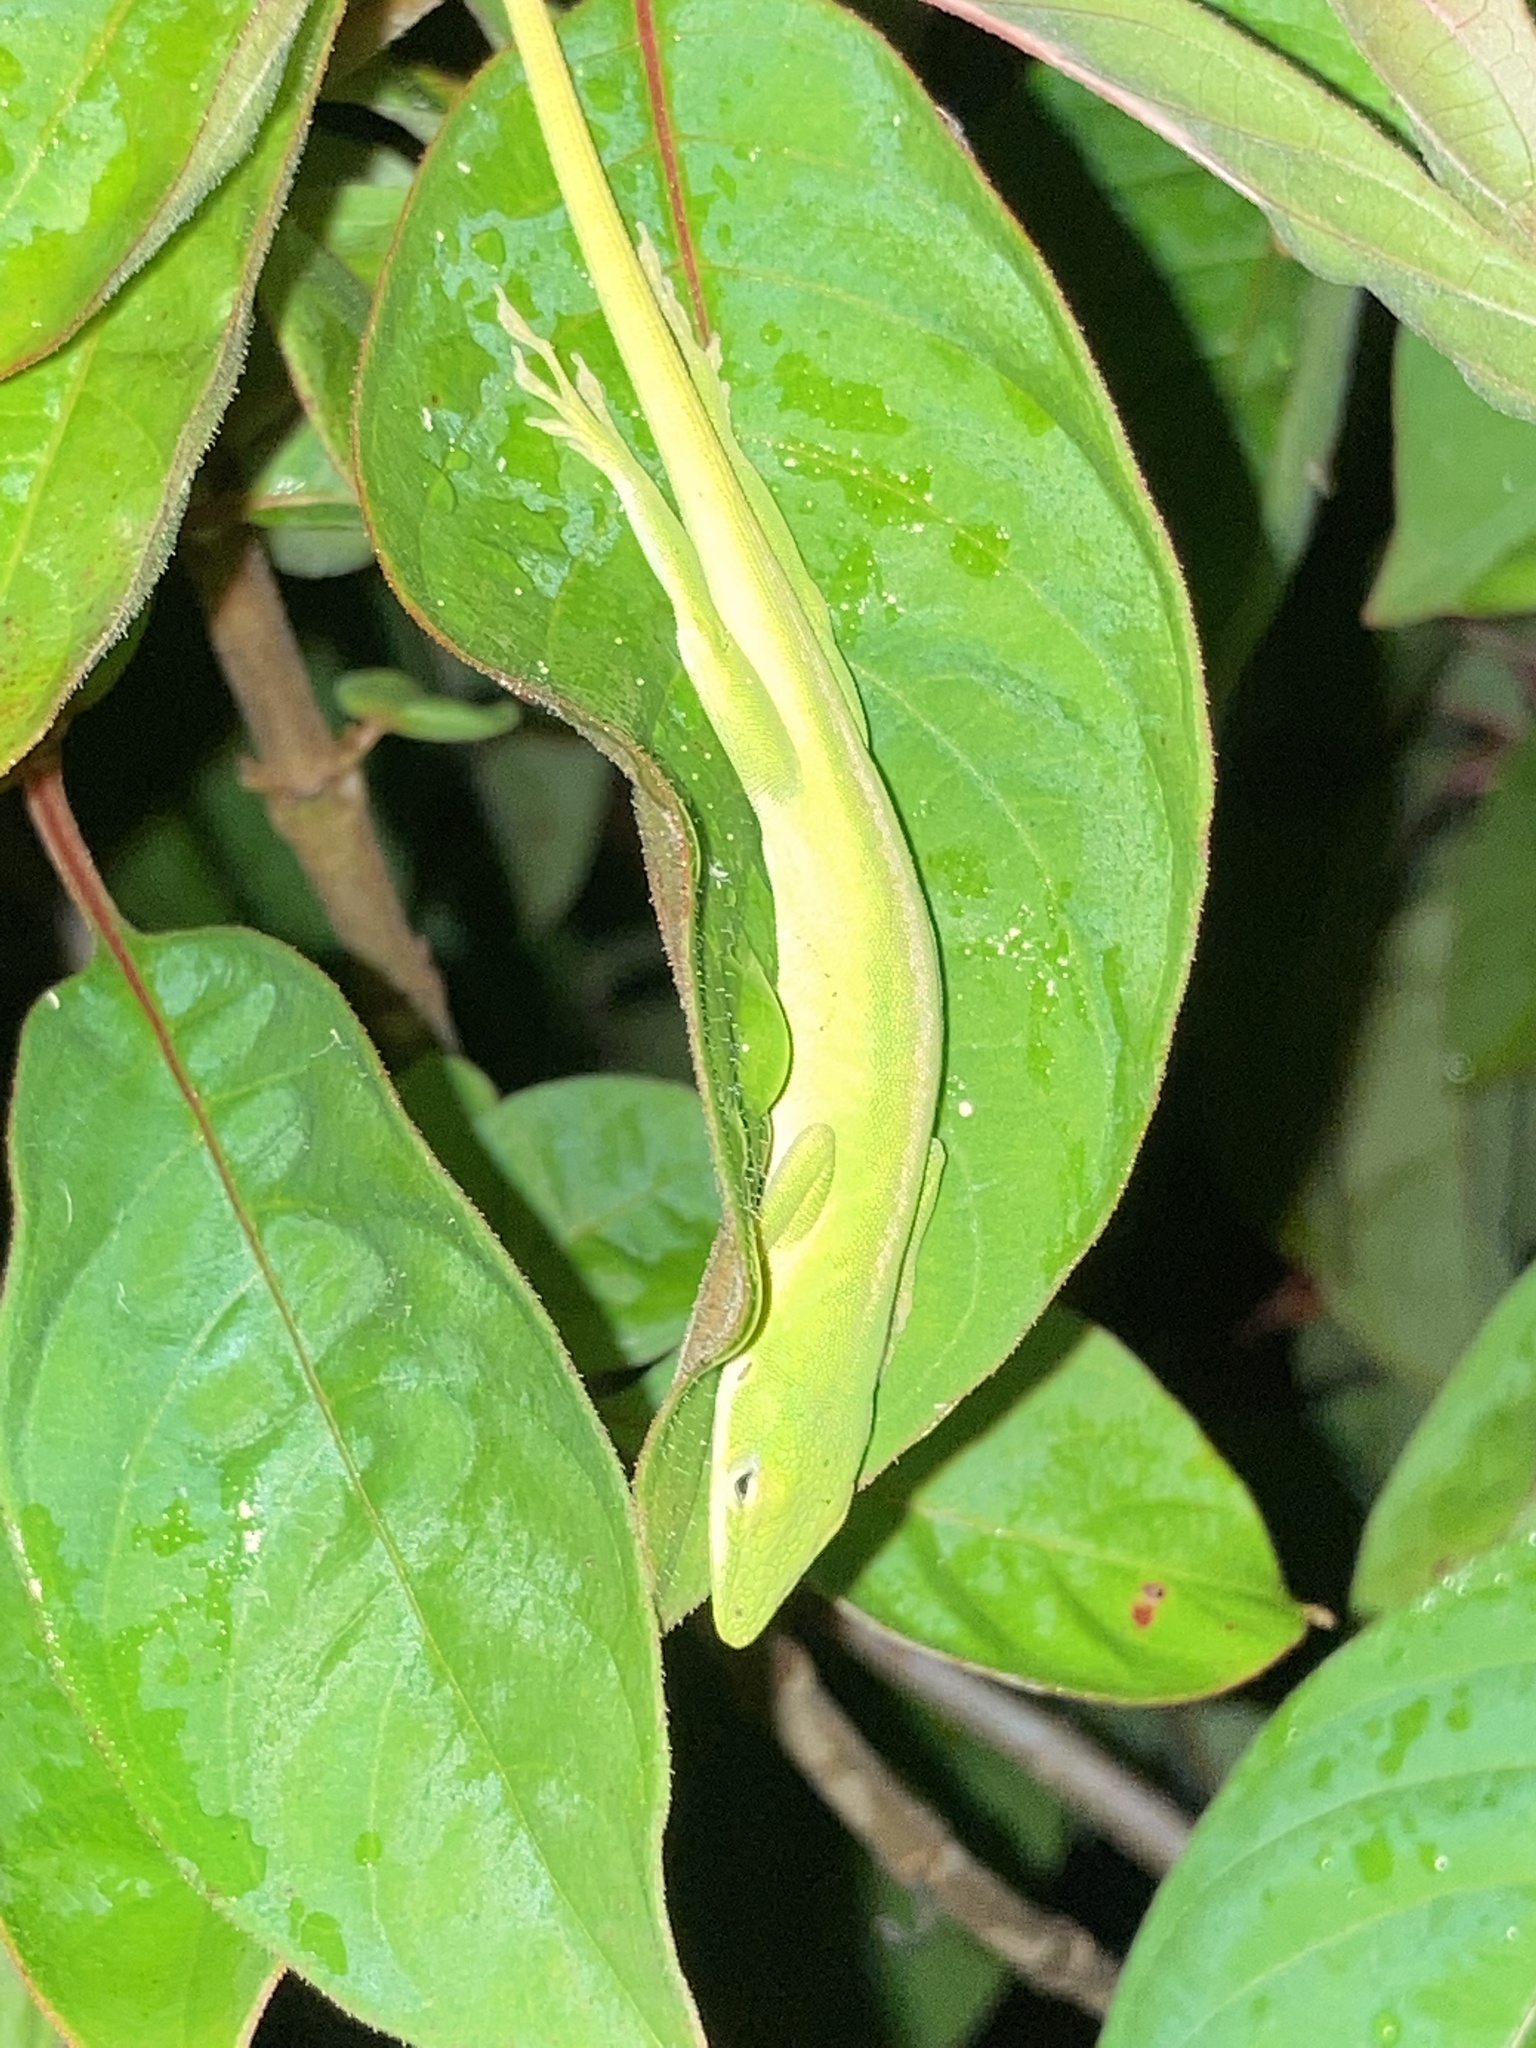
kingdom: Animalia
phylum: Chordata
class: Squamata
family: Dactyloidae
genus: Anolis
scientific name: Anolis carolinensis
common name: Green anole
